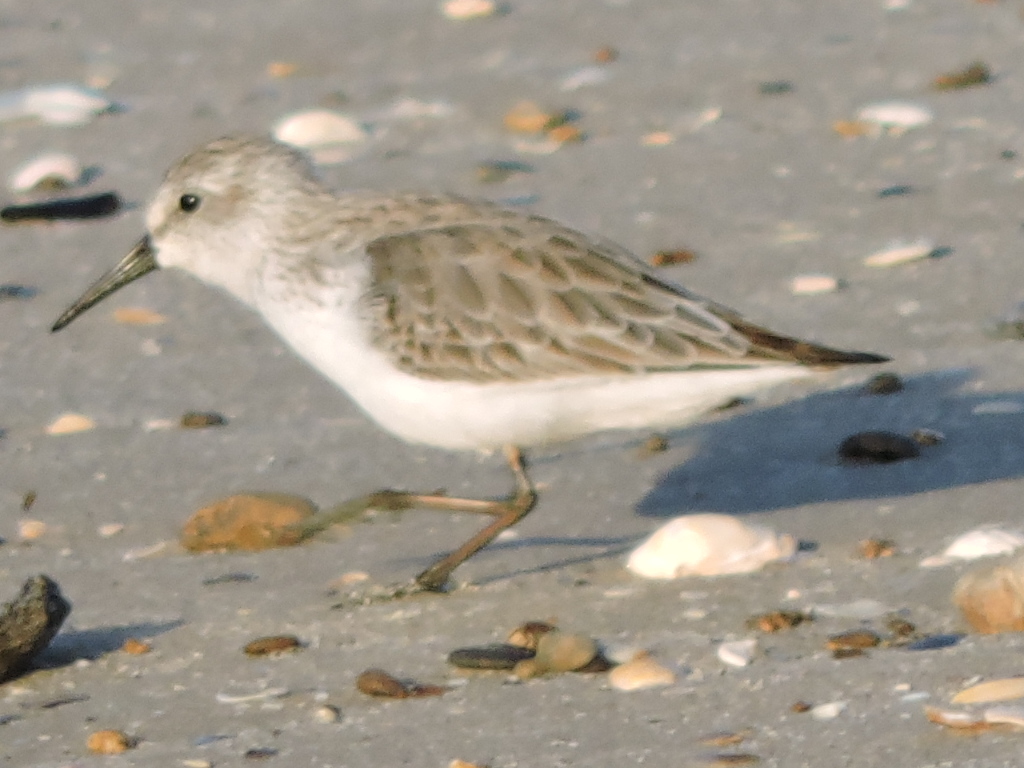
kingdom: Animalia
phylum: Chordata
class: Aves
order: Charadriiformes
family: Scolopacidae
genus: Calidris
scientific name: Calidris mauri
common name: Western sandpiper
